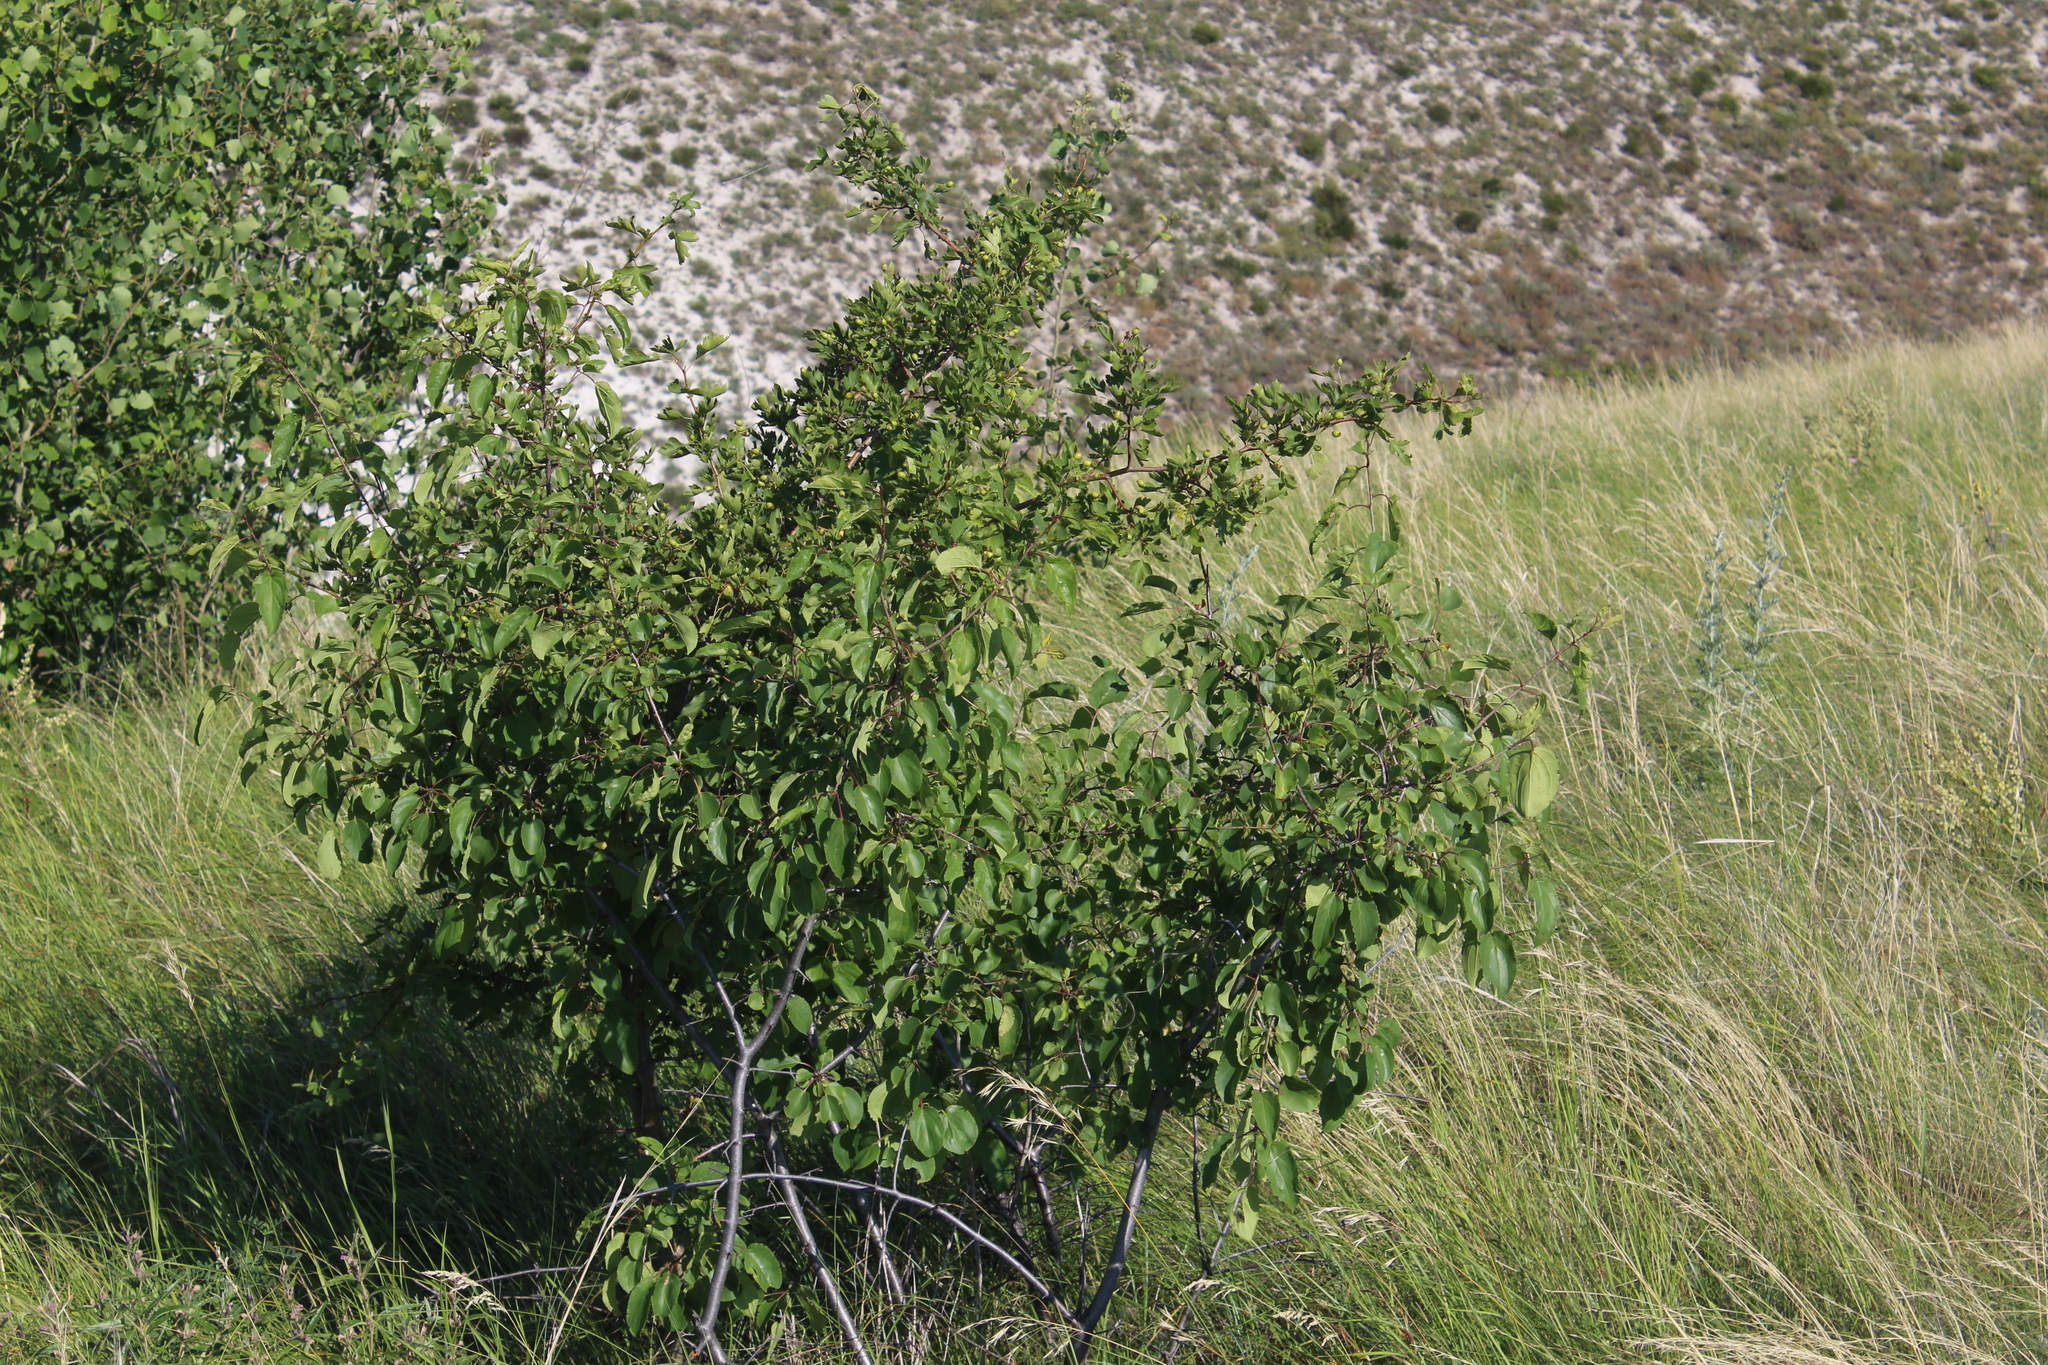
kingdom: Plantae
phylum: Tracheophyta
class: Magnoliopsida
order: Rosales
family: Rhamnaceae
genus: Rhamnus
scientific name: Rhamnus cathartica
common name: Common buckthorn
